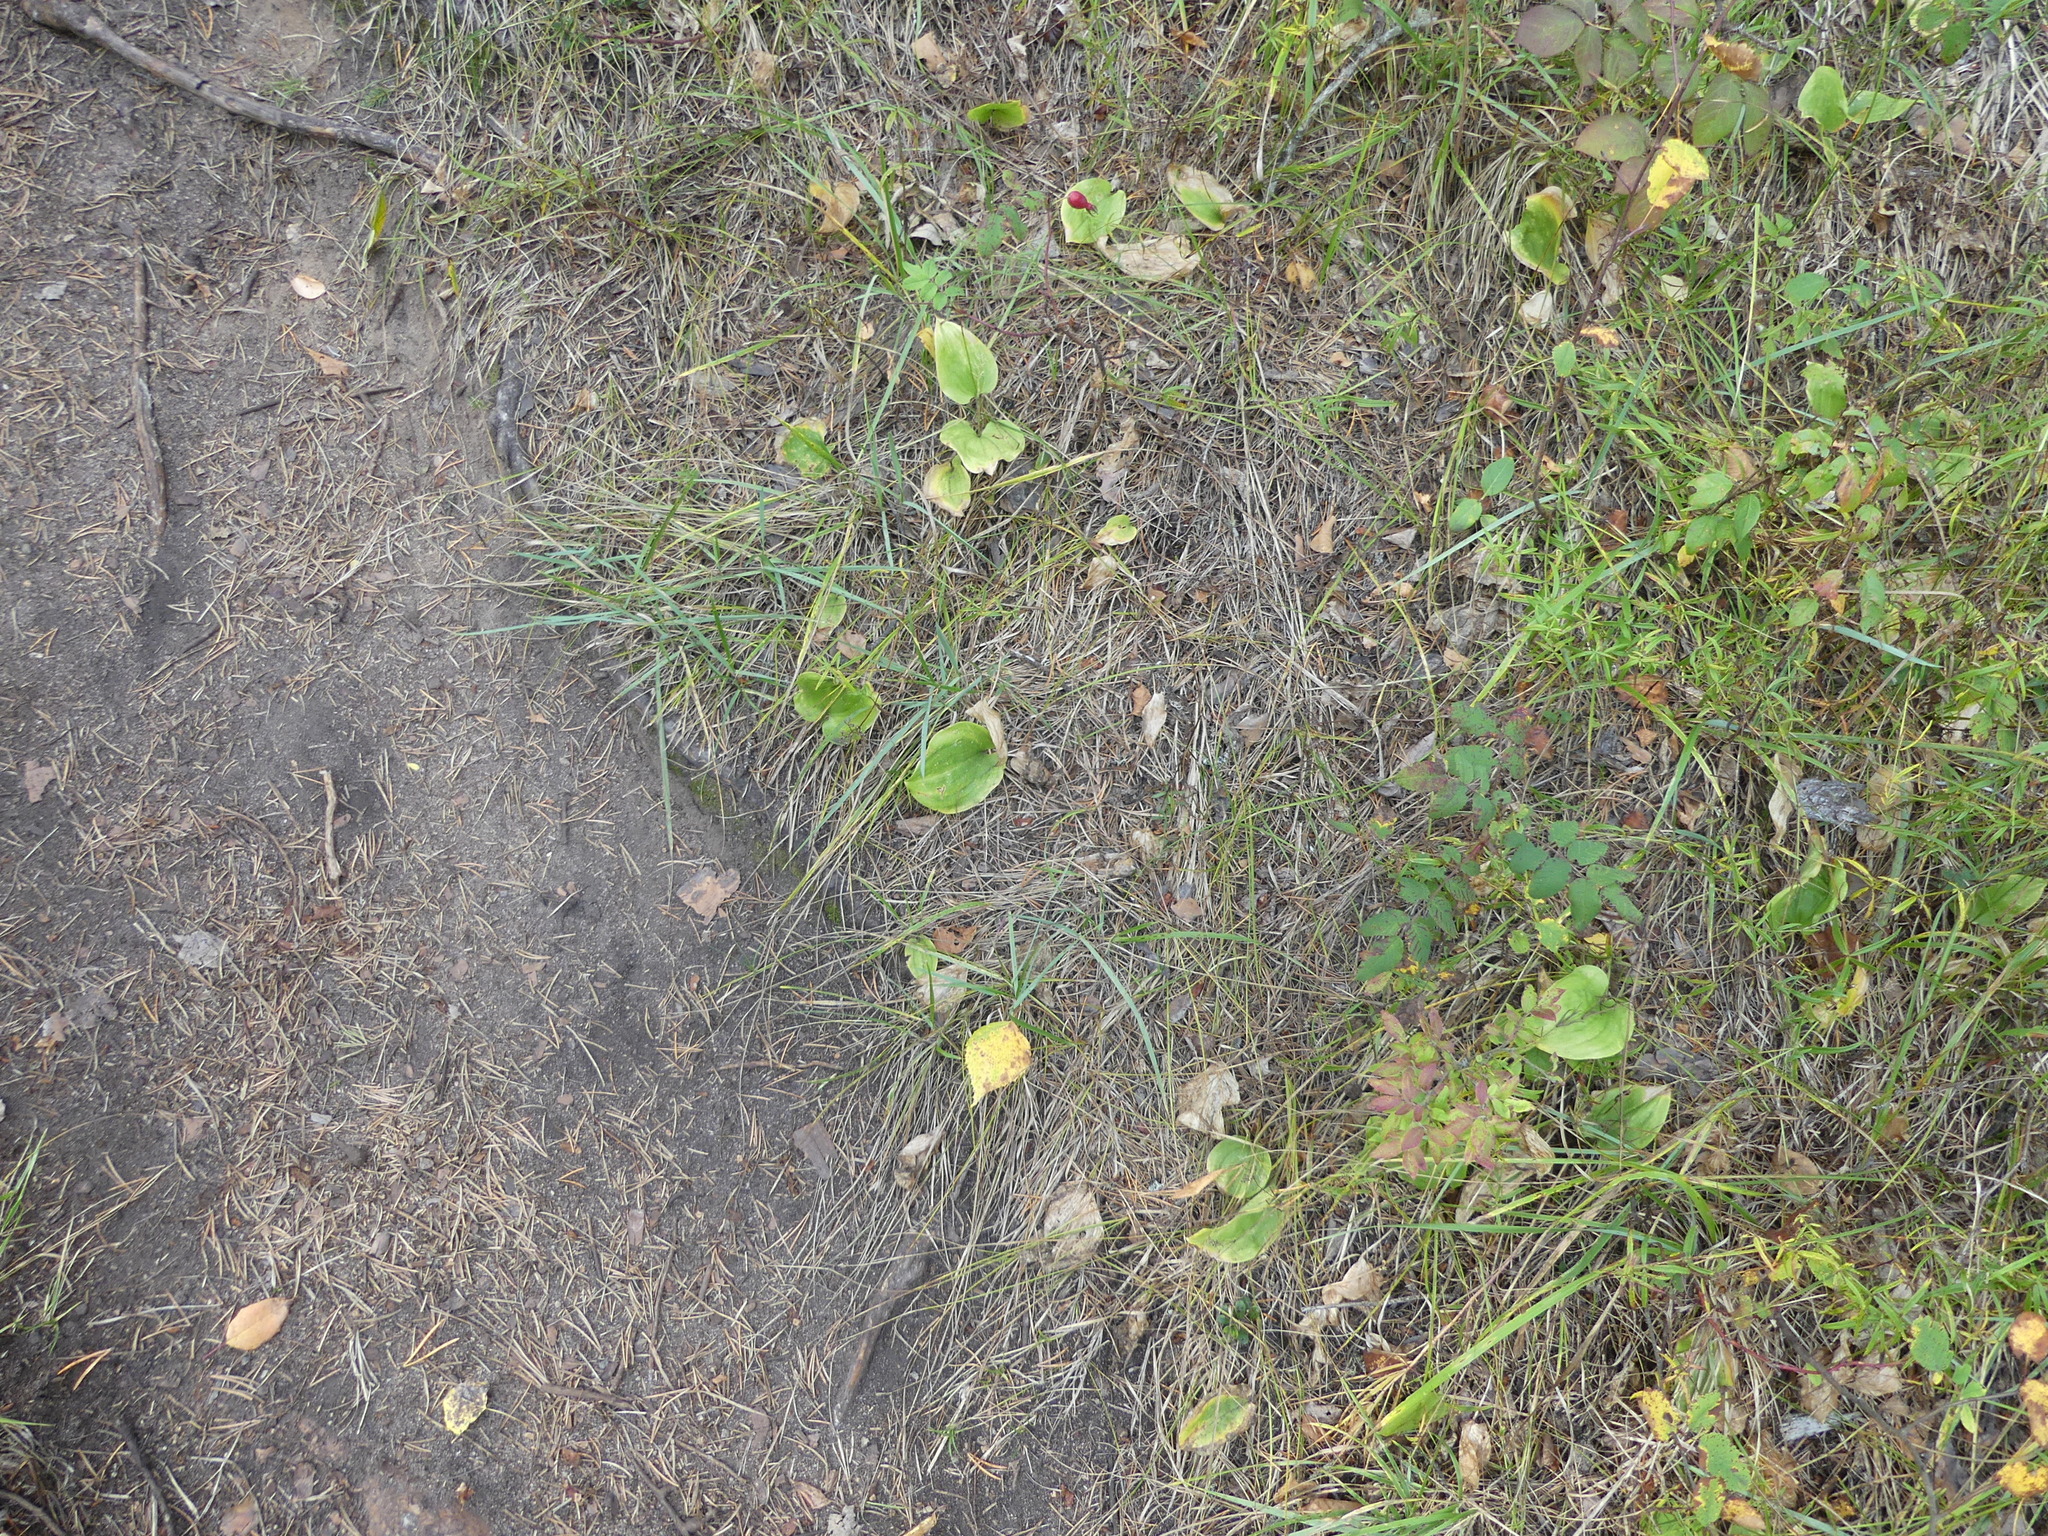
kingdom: Plantae
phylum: Tracheophyta
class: Liliopsida
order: Asparagales
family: Asparagaceae
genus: Maianthemum
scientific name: Maianthemum canadense
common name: False lily-of-the-valley
